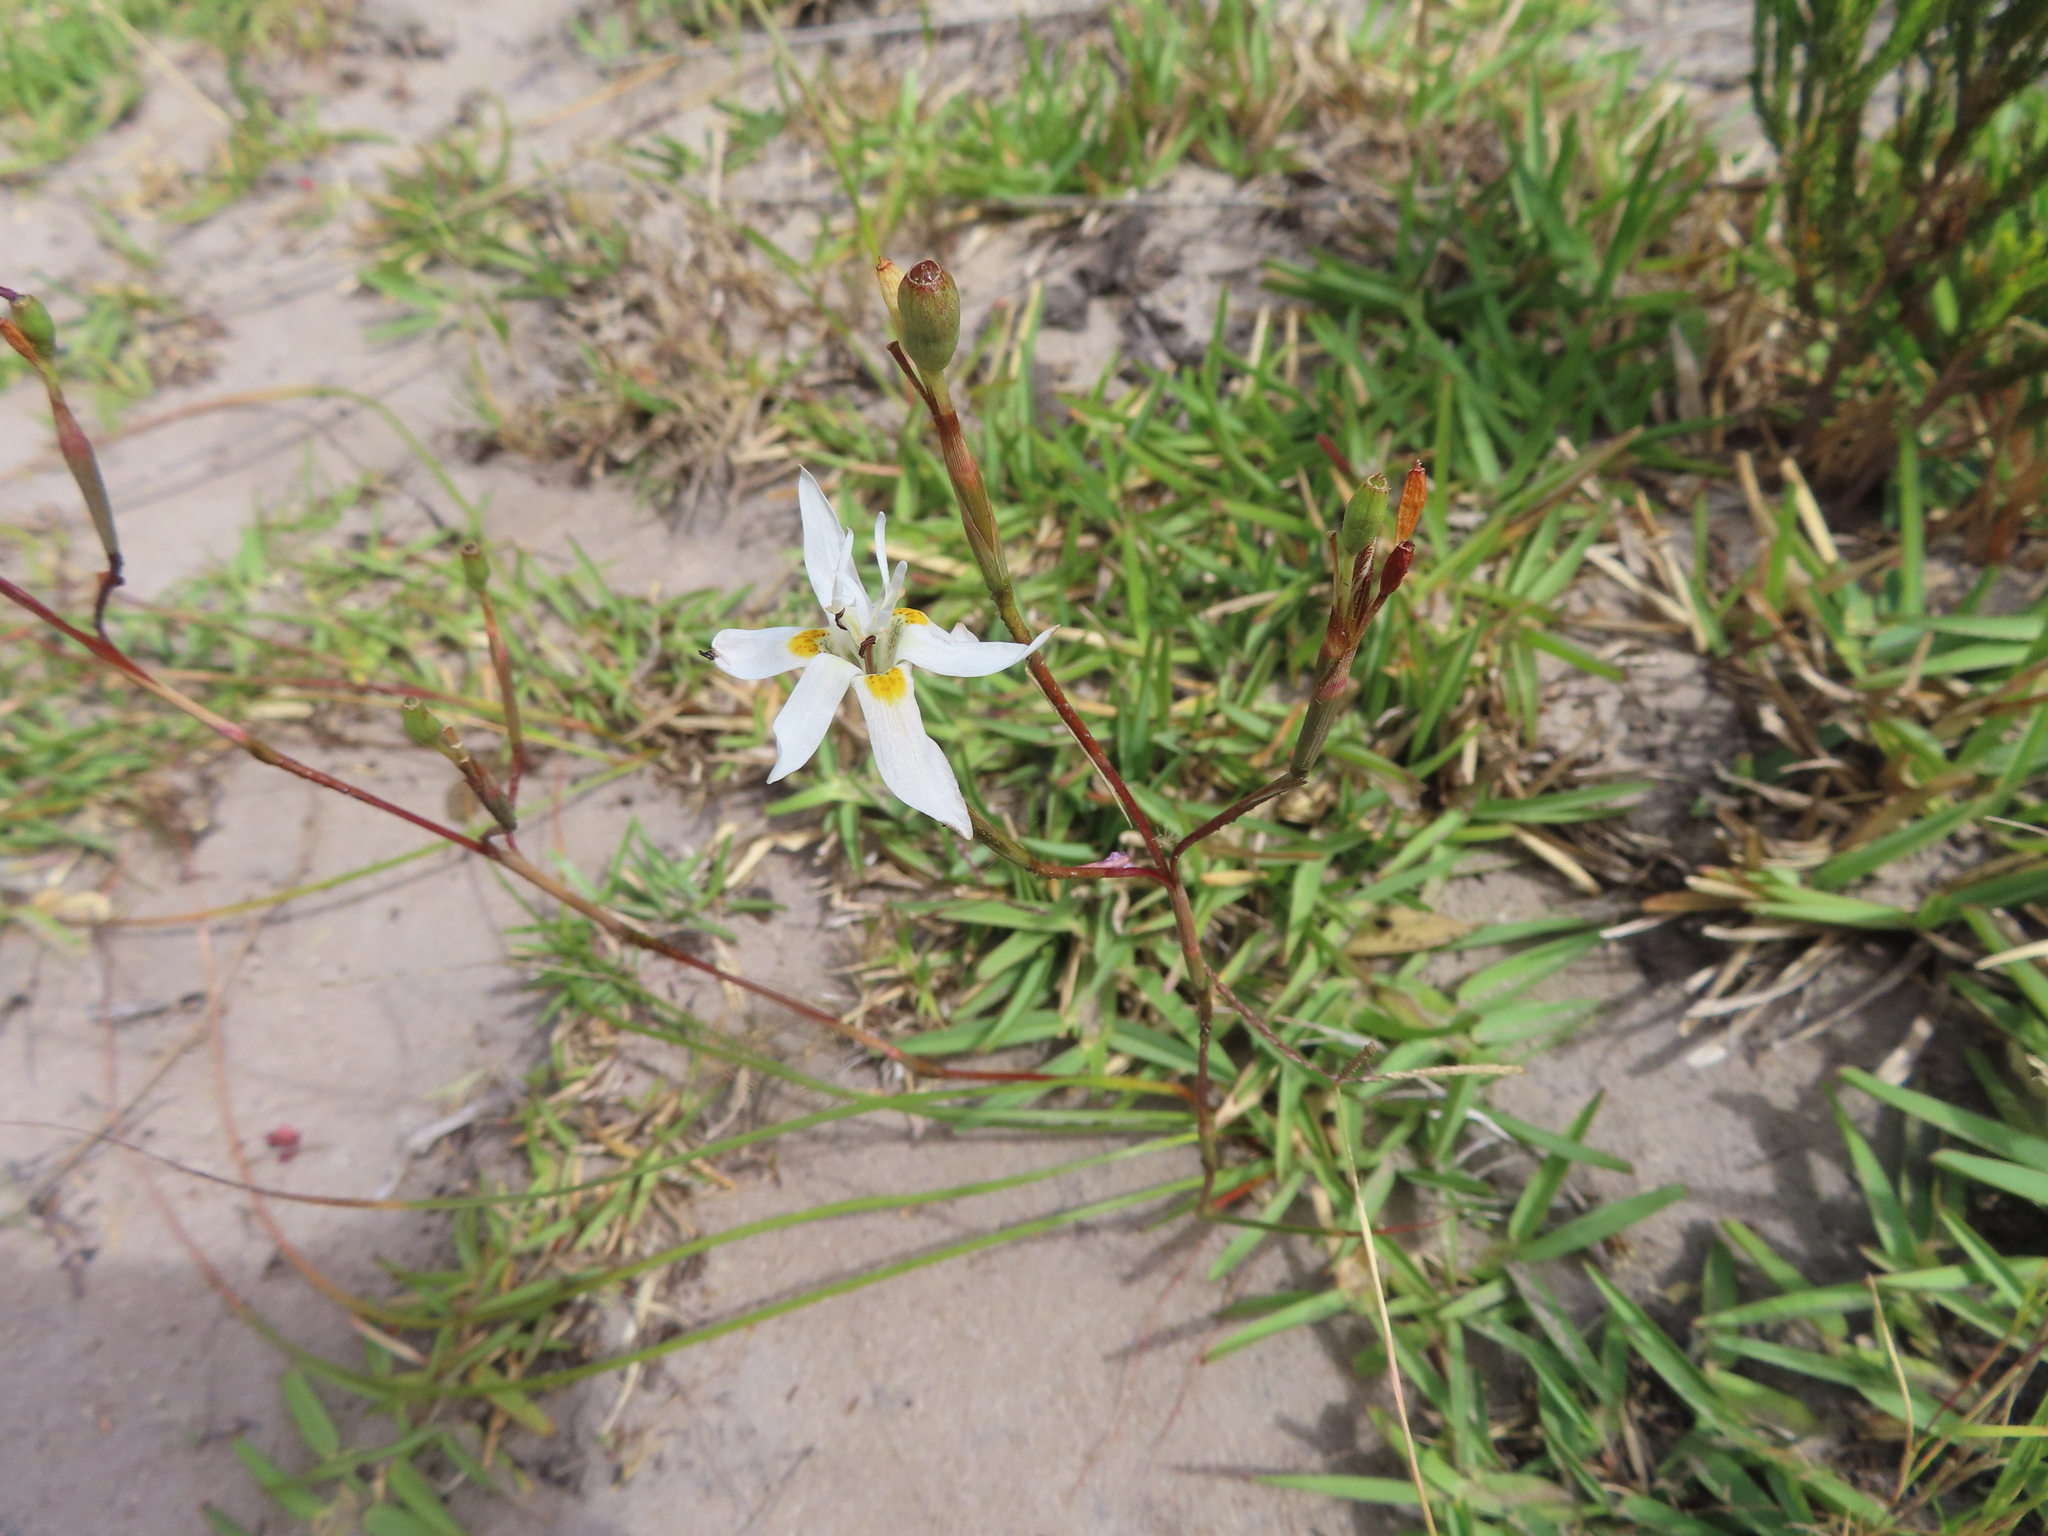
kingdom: Plantae
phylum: Tracheophyta
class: Liliopsida
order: Asparagales
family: Iridaceae
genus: Moraea
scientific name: Moraea viscaria
